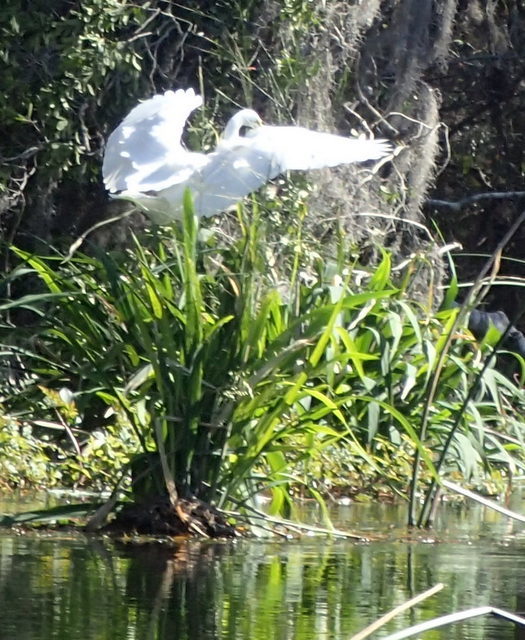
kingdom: Animalia
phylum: Chordata
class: Aves
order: Pelecaniformes
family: Ardeidae
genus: Ardea
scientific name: Ardea alba
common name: Great egret
